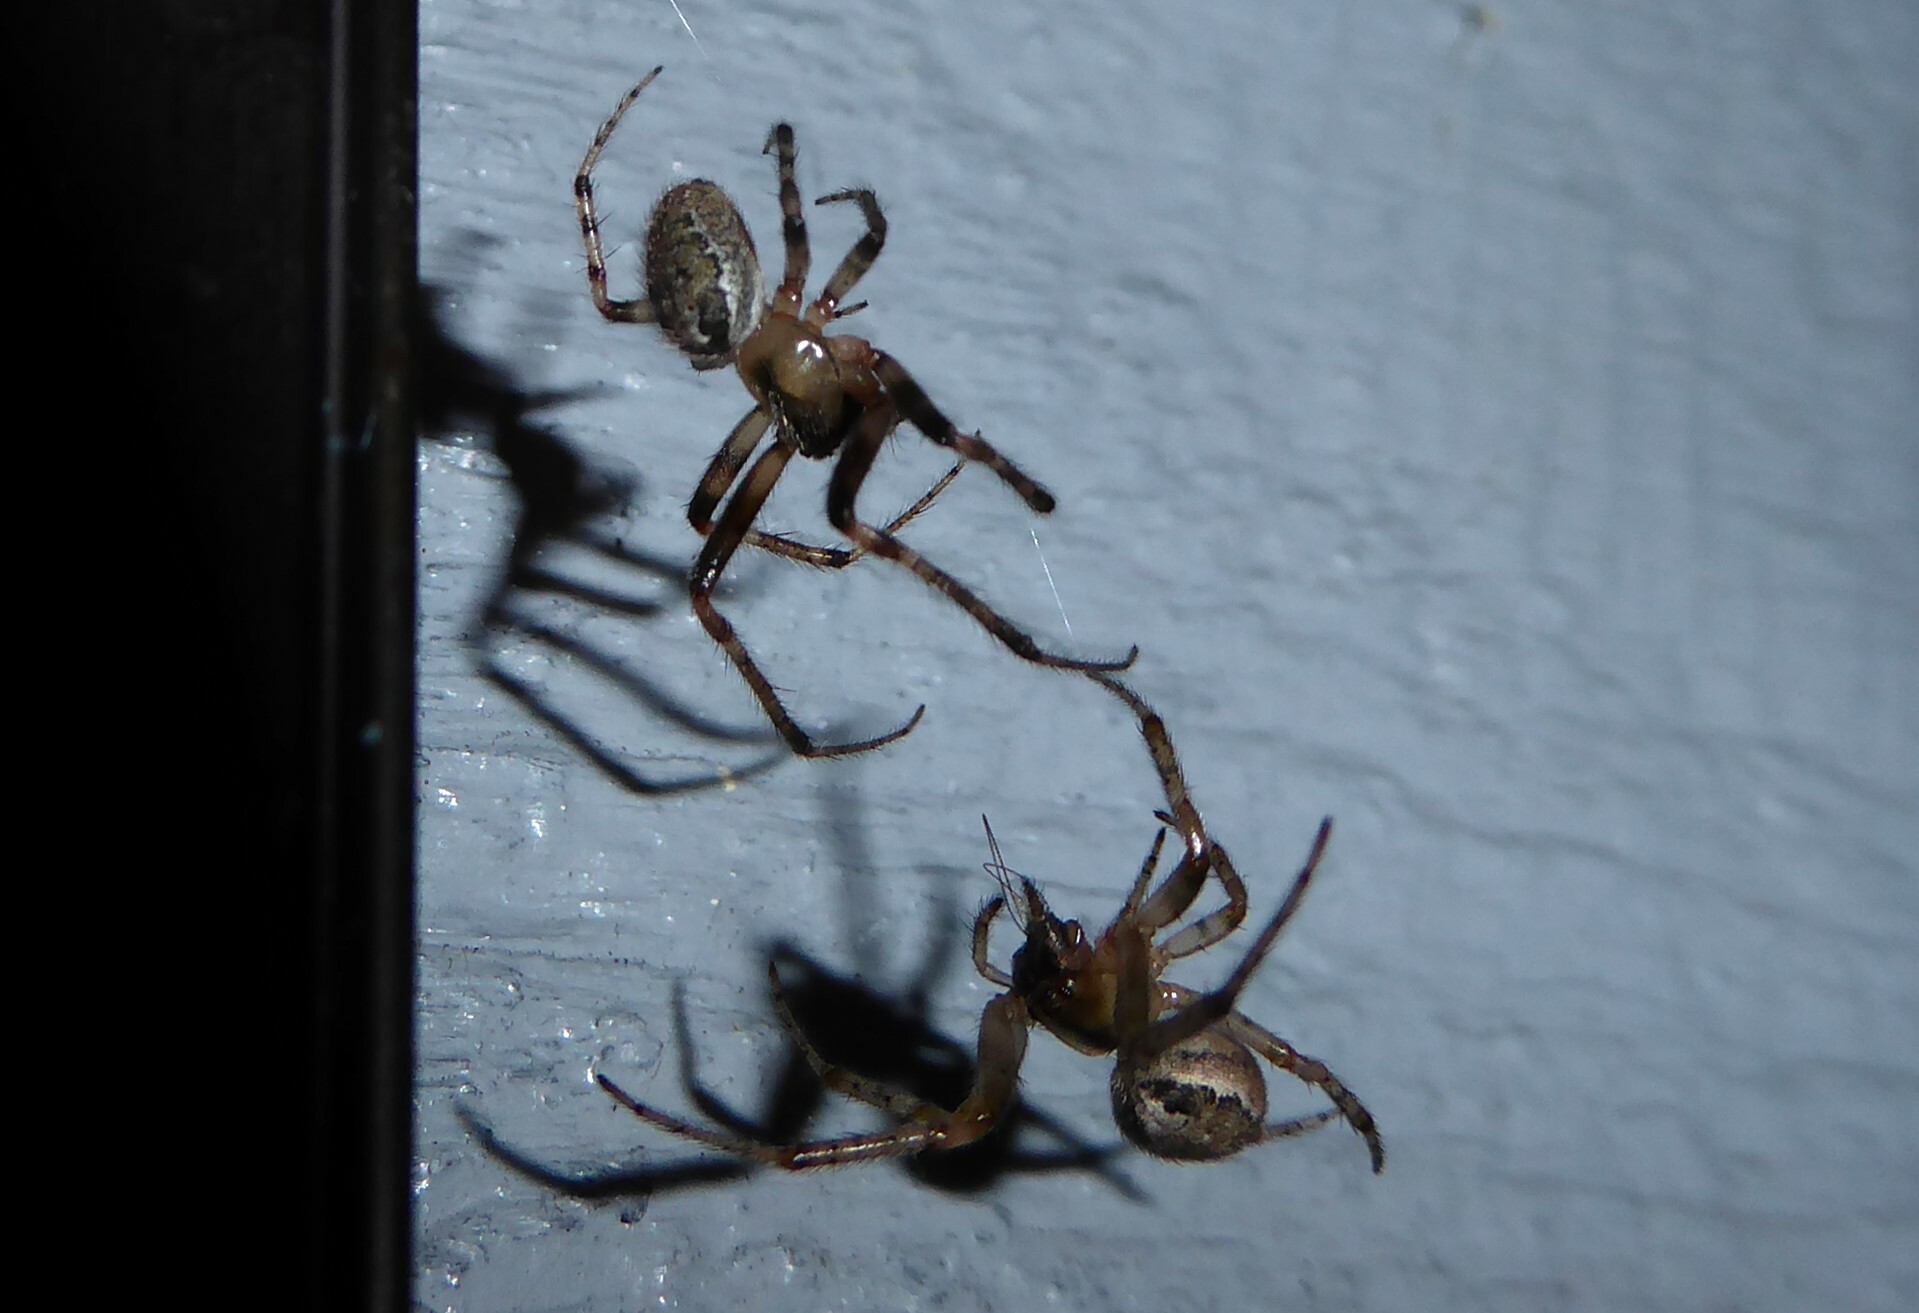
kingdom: Animalia
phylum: Arthropoda
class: Arachnida
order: Araneae
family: Araneidae
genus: Zygiella
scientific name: Zygiella x-notata
